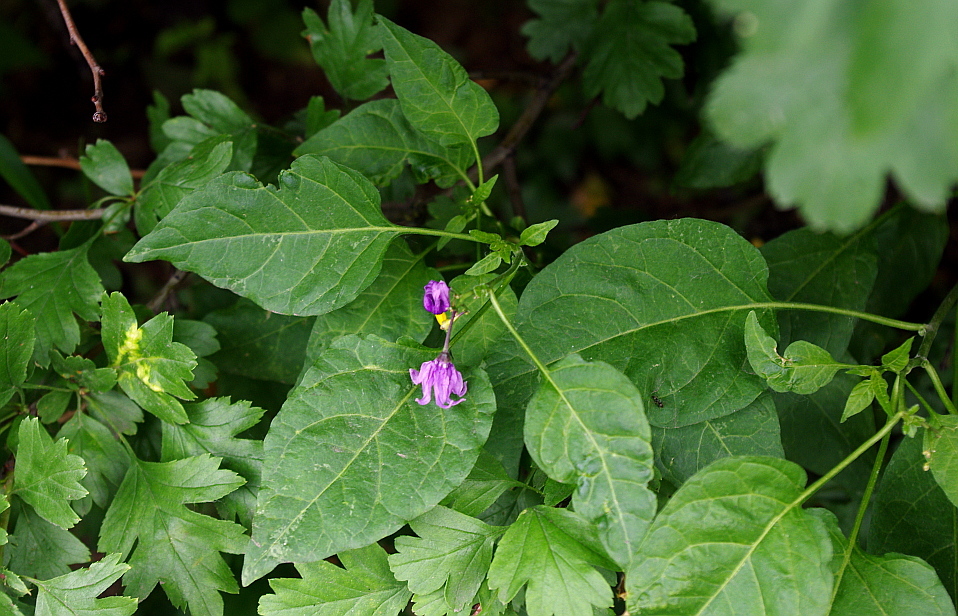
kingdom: Plantae
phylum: Tracheophyta
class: Magnoliopsida
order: Solanales
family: Solanaceae
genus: Solanum
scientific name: Solanum dulcamara
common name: Climbing nightshade
